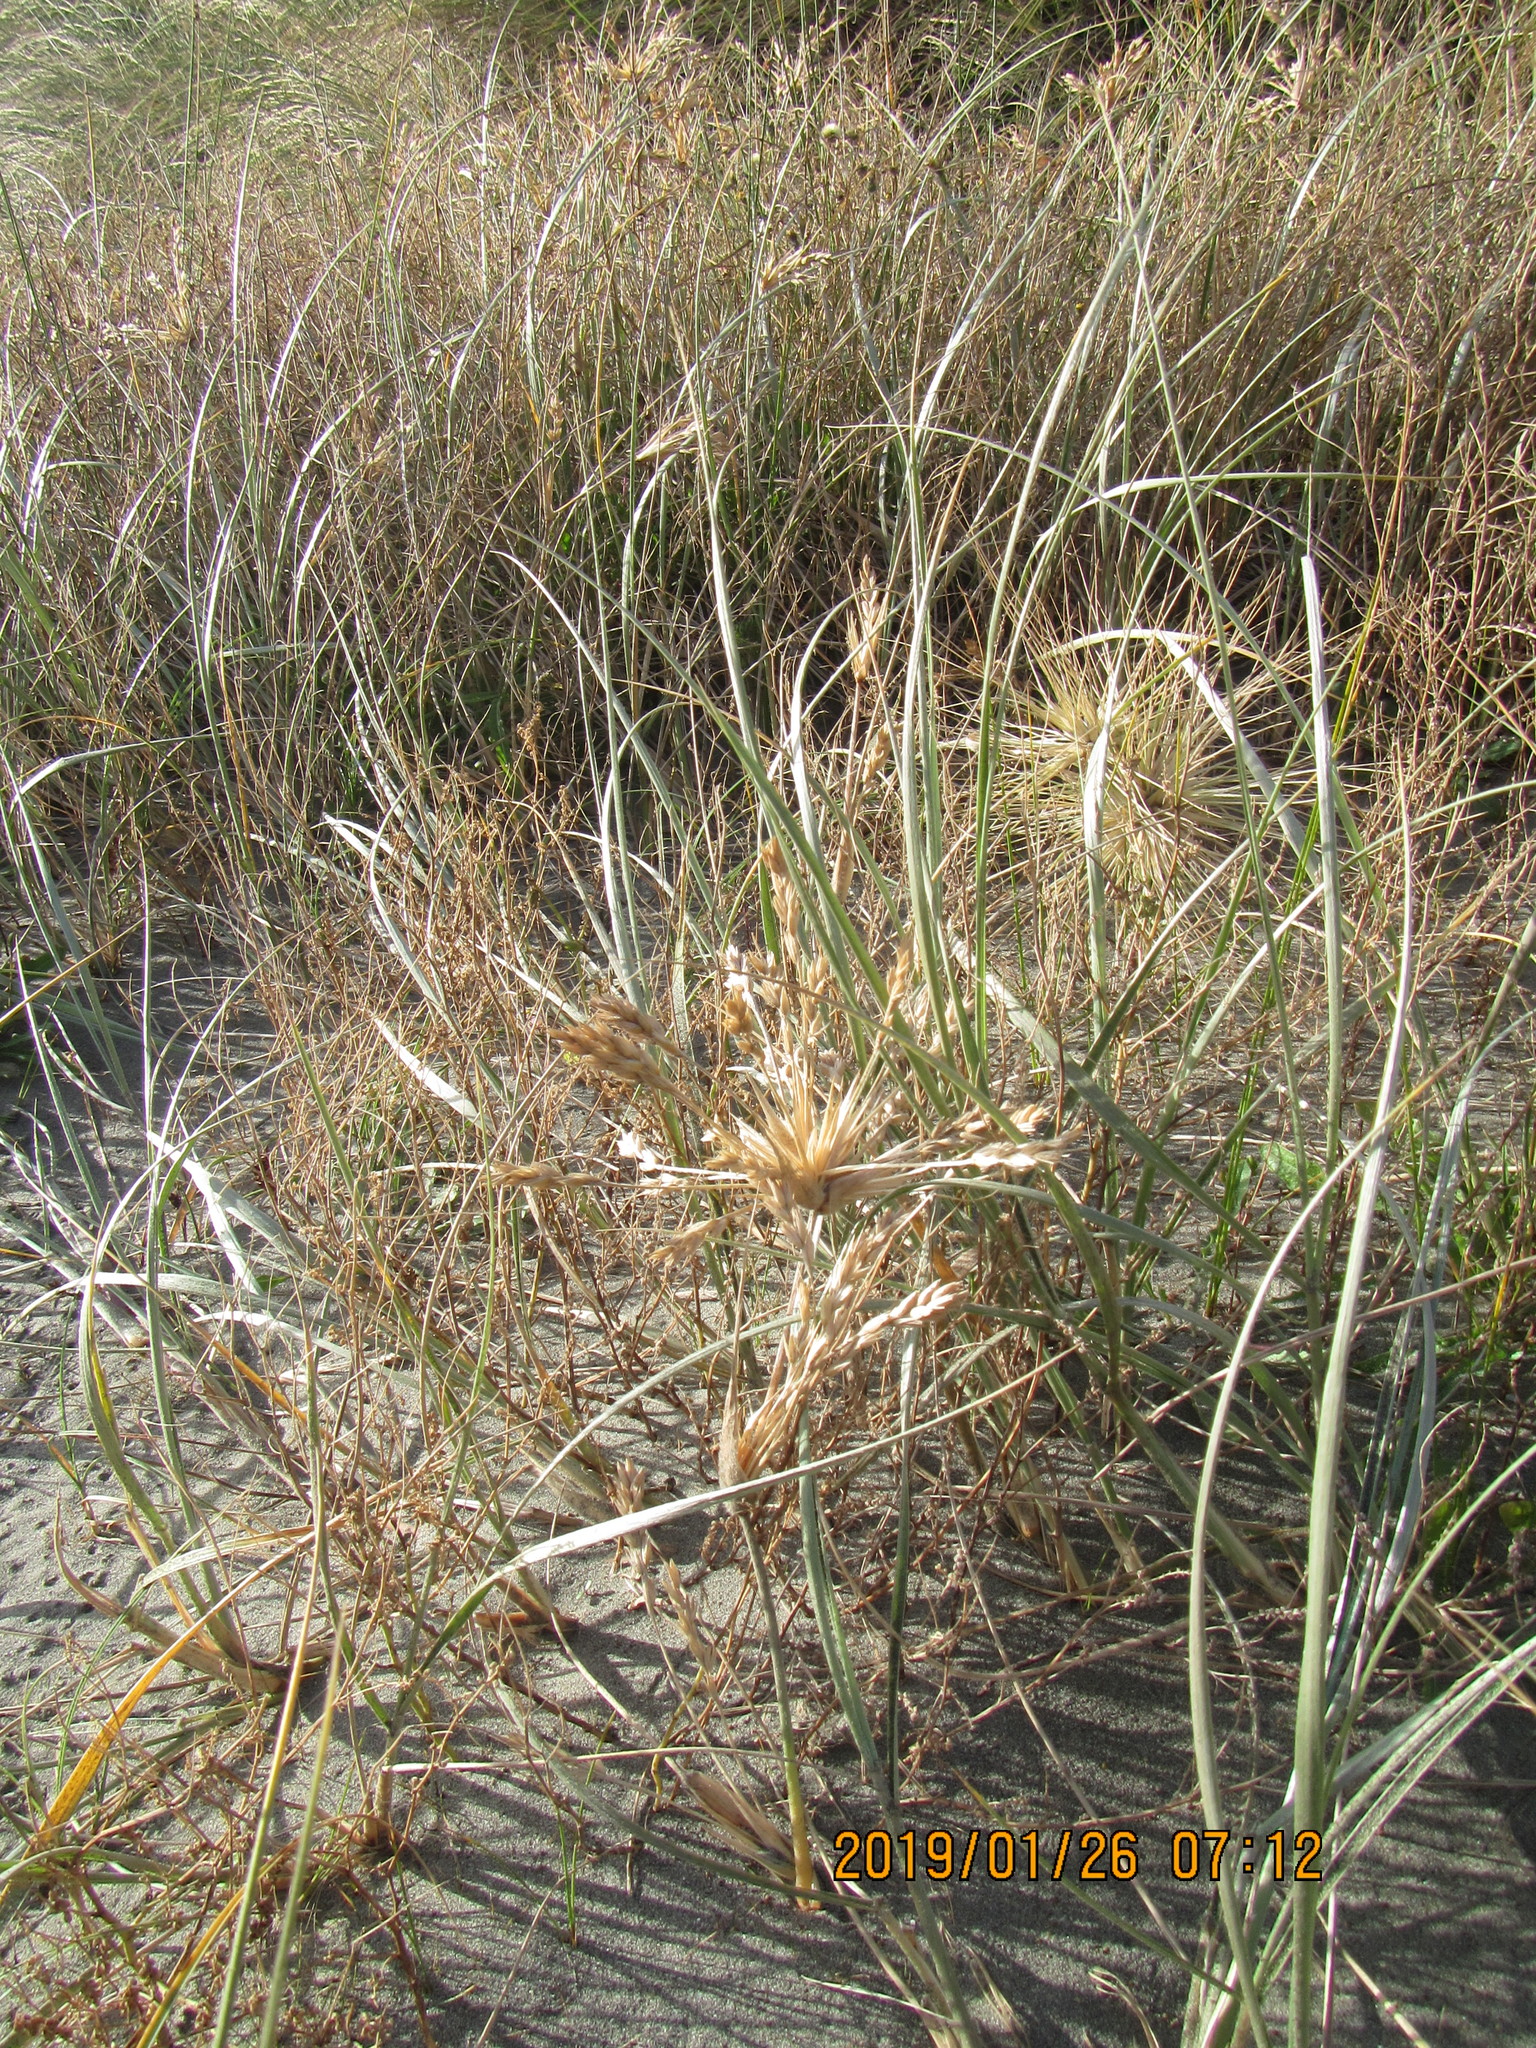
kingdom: Plantae
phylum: Tracheophyta
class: Liliopsida
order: Poales
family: Poaceae
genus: Spinifex
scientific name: Spinifex sericeus
